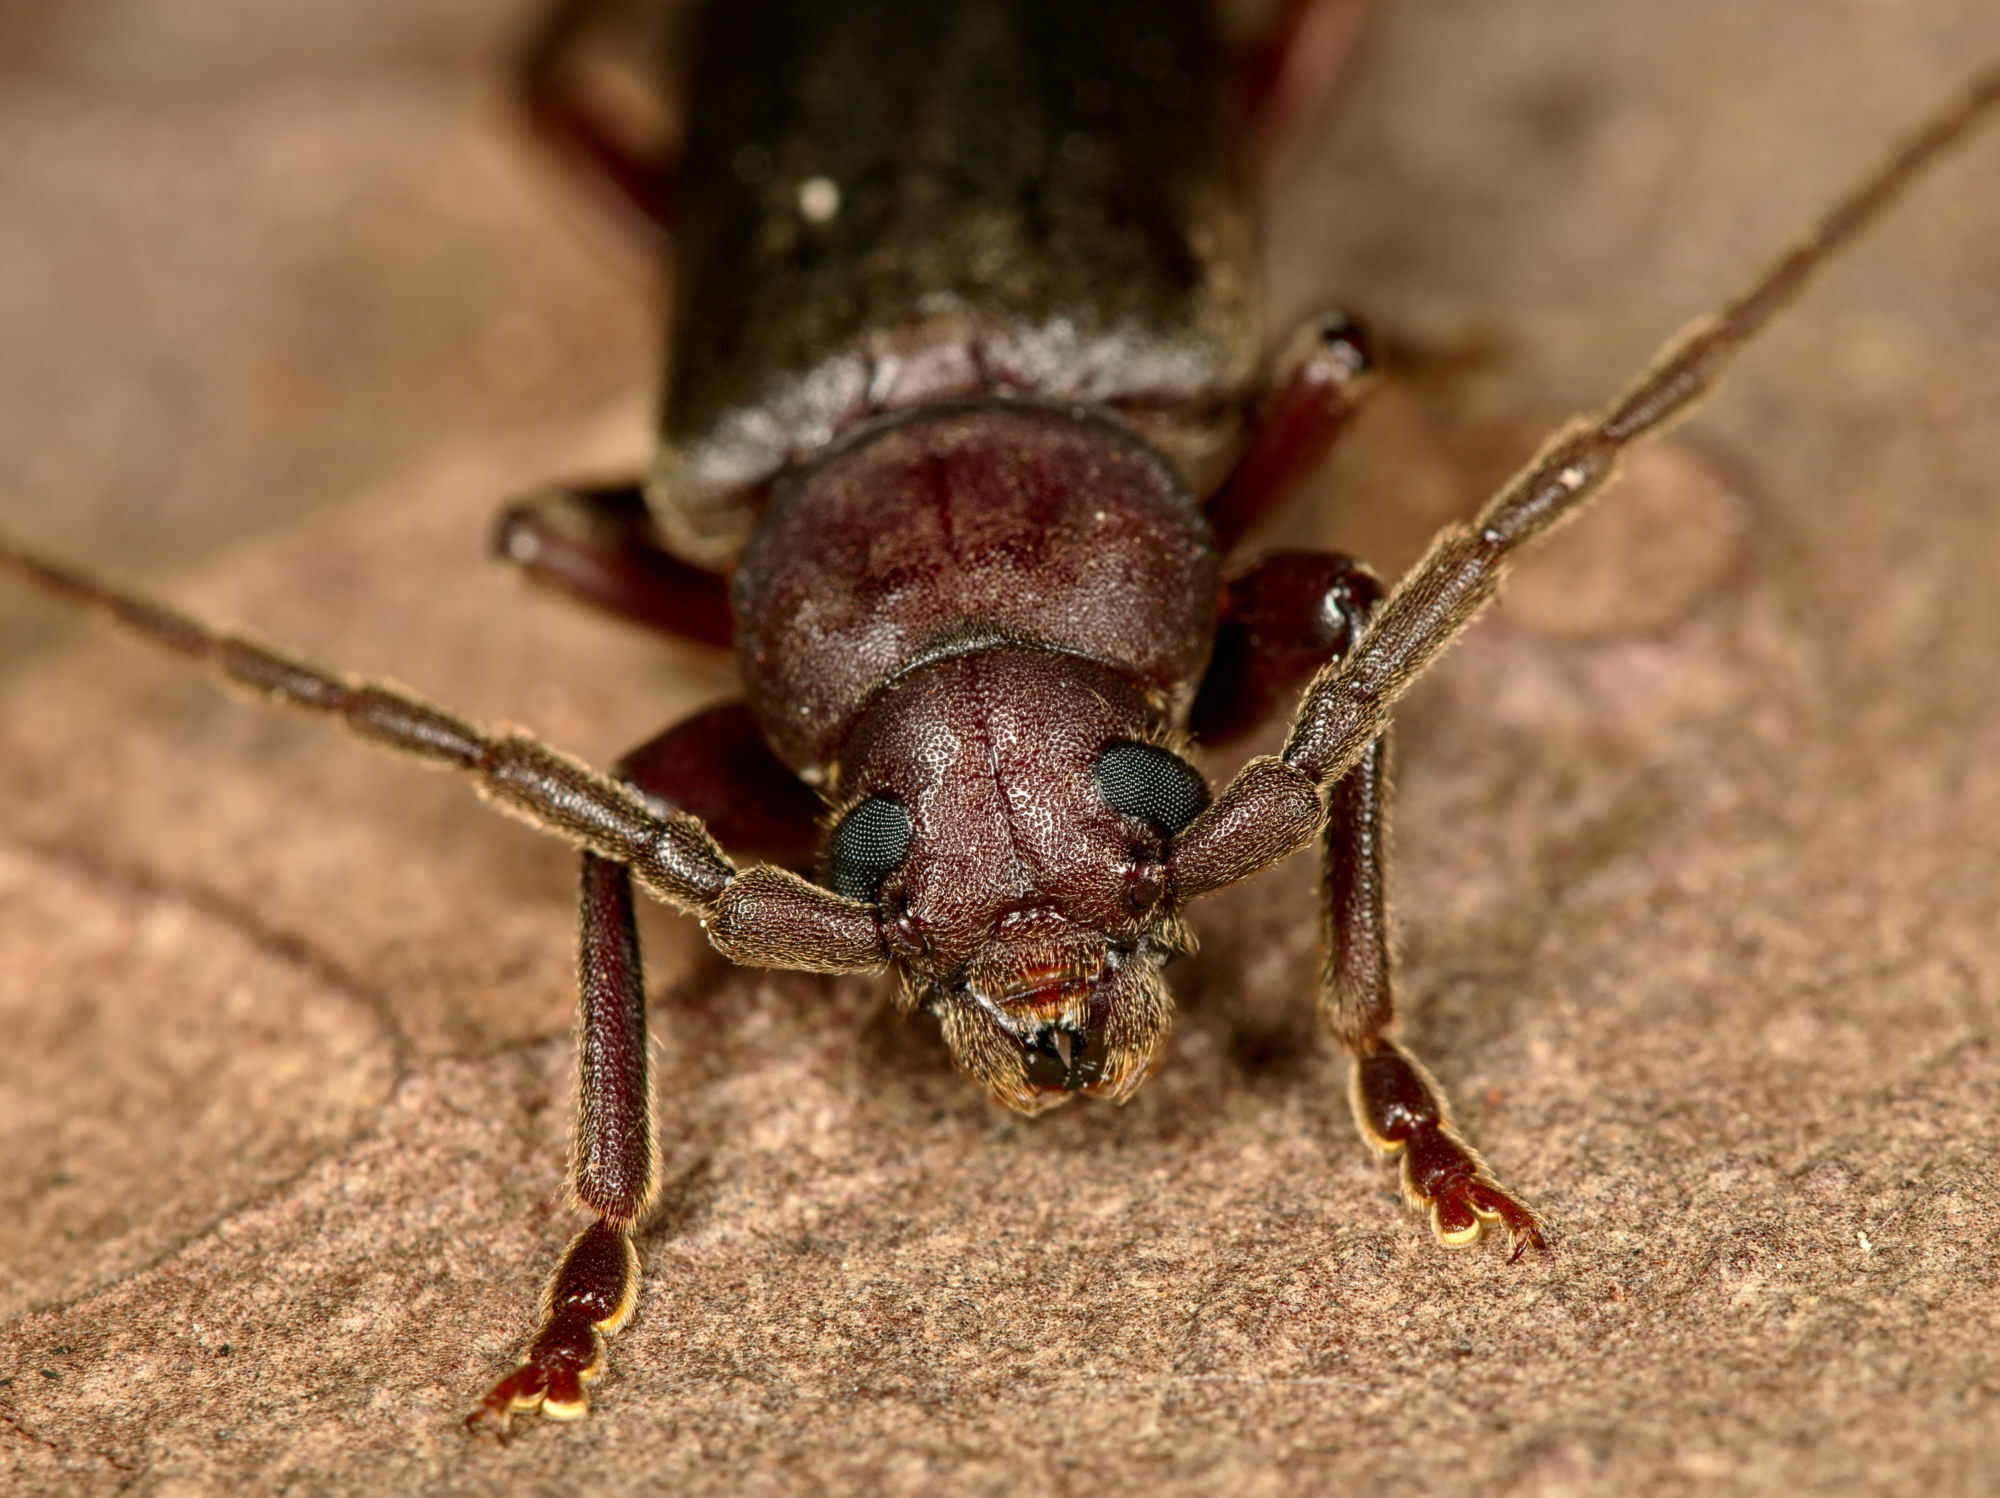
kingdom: Animalia
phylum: Arthropoda
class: Insecta
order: Coleoptera
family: Cerambycidae
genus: Arhopalus
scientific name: Arhopalus rusticus
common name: Rust pine borer
